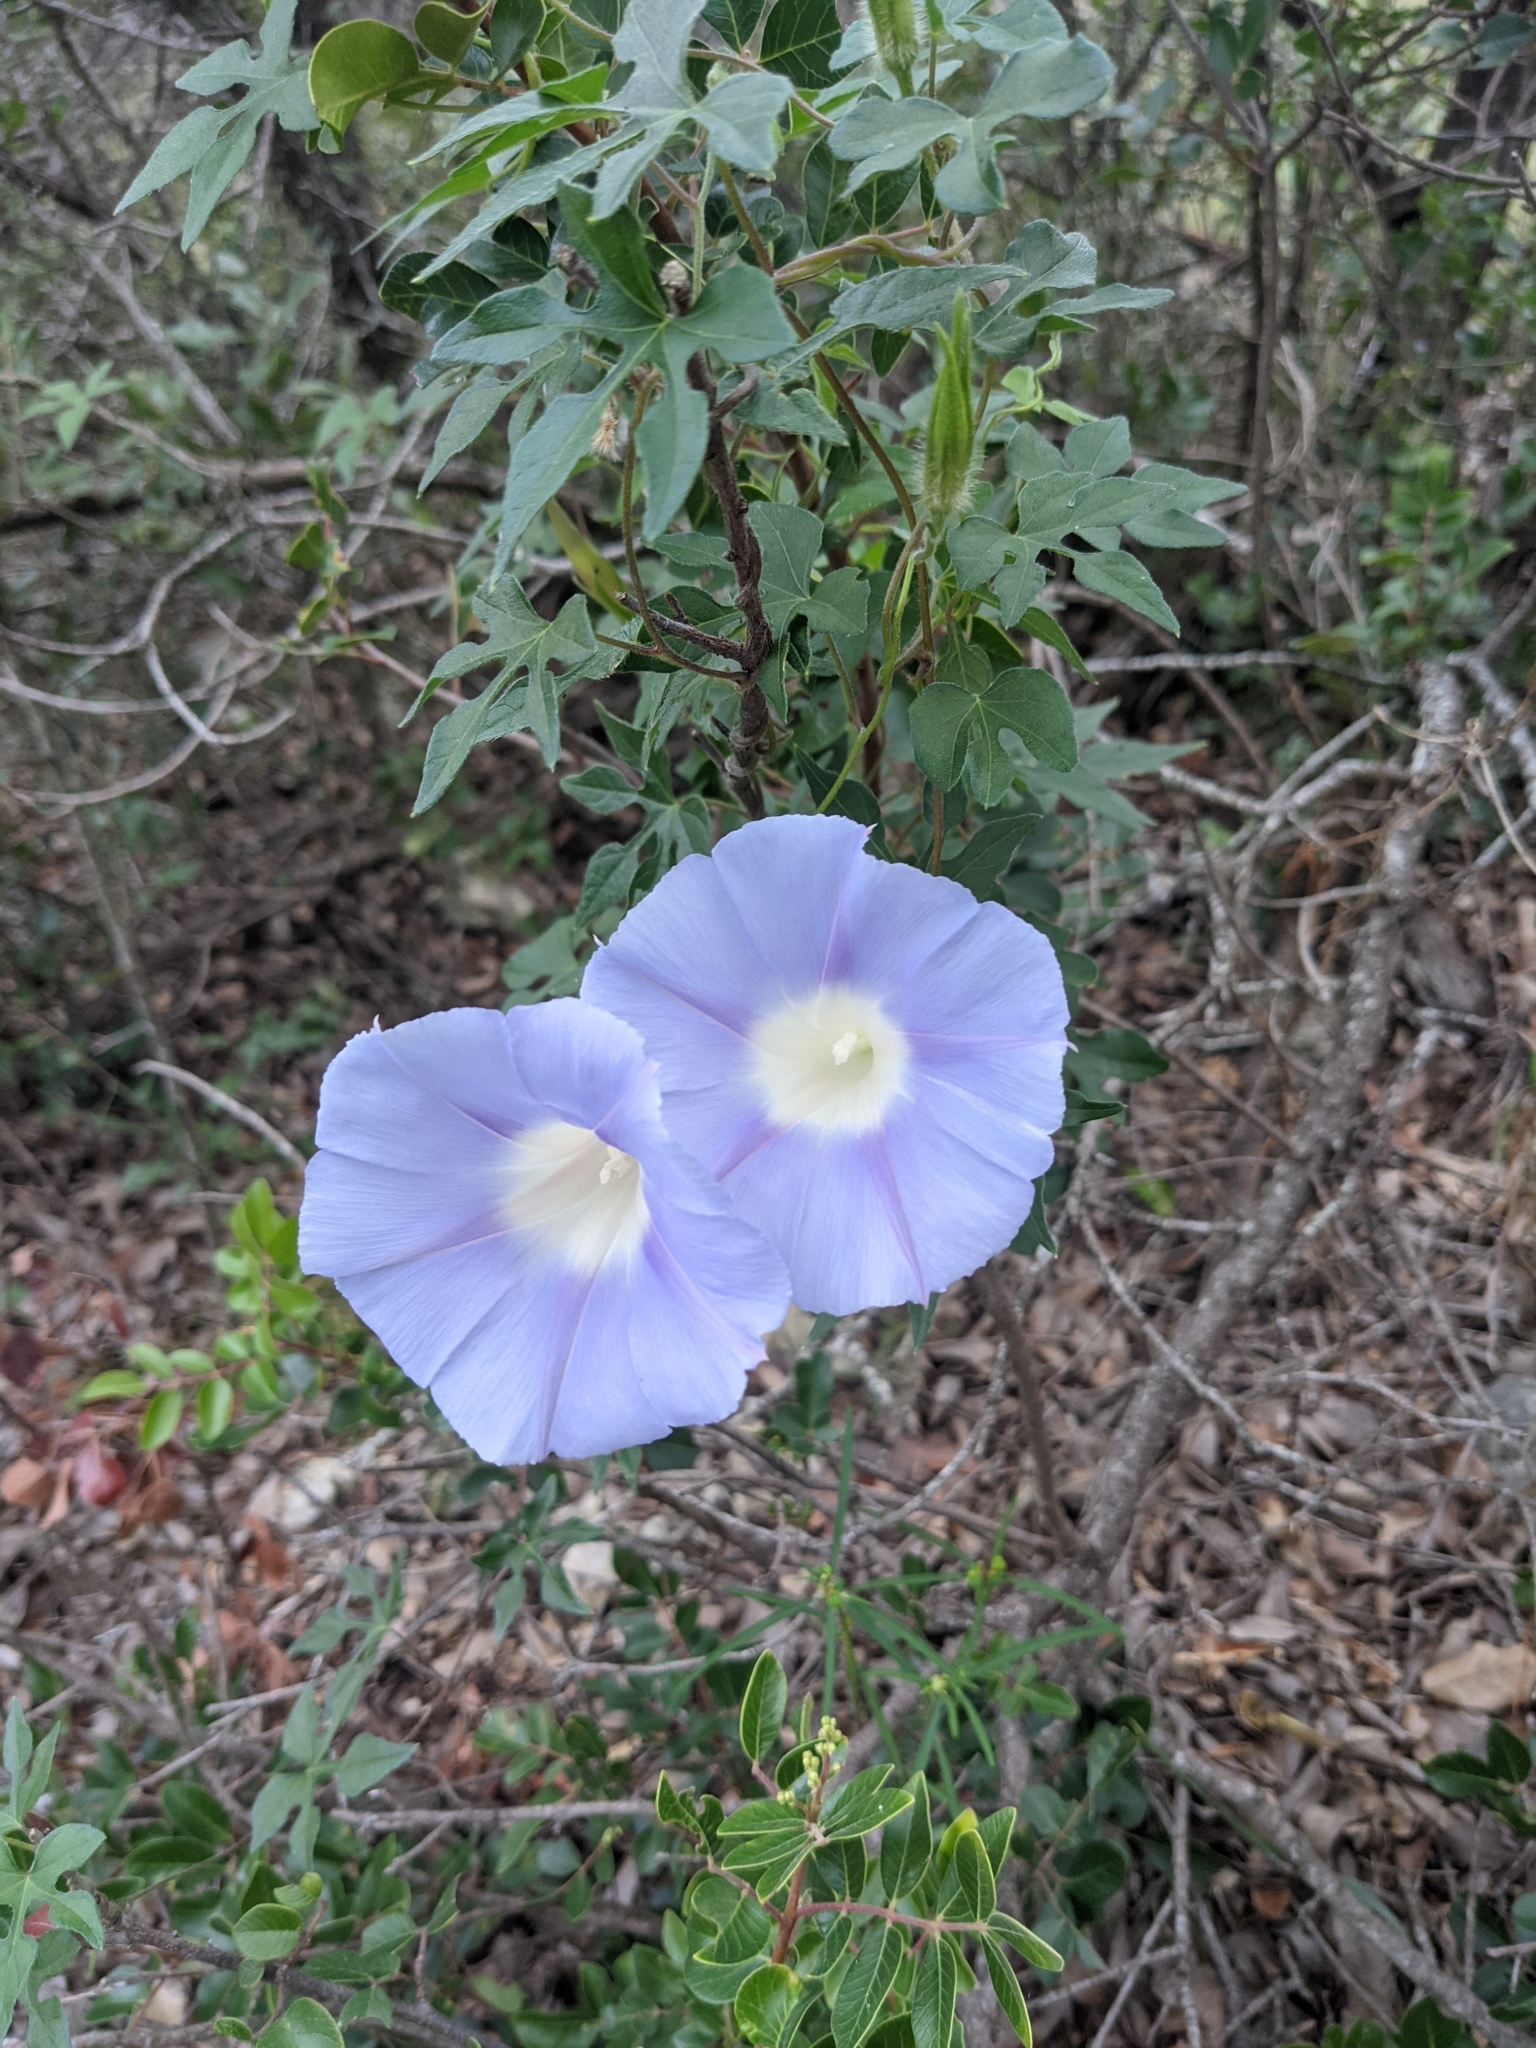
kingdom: Plantae
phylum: Tracheophyta
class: Magnoliopsida
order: Solanales
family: Convolvulaceae
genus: Ipomoea
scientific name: Ipomoea lindheimeri
